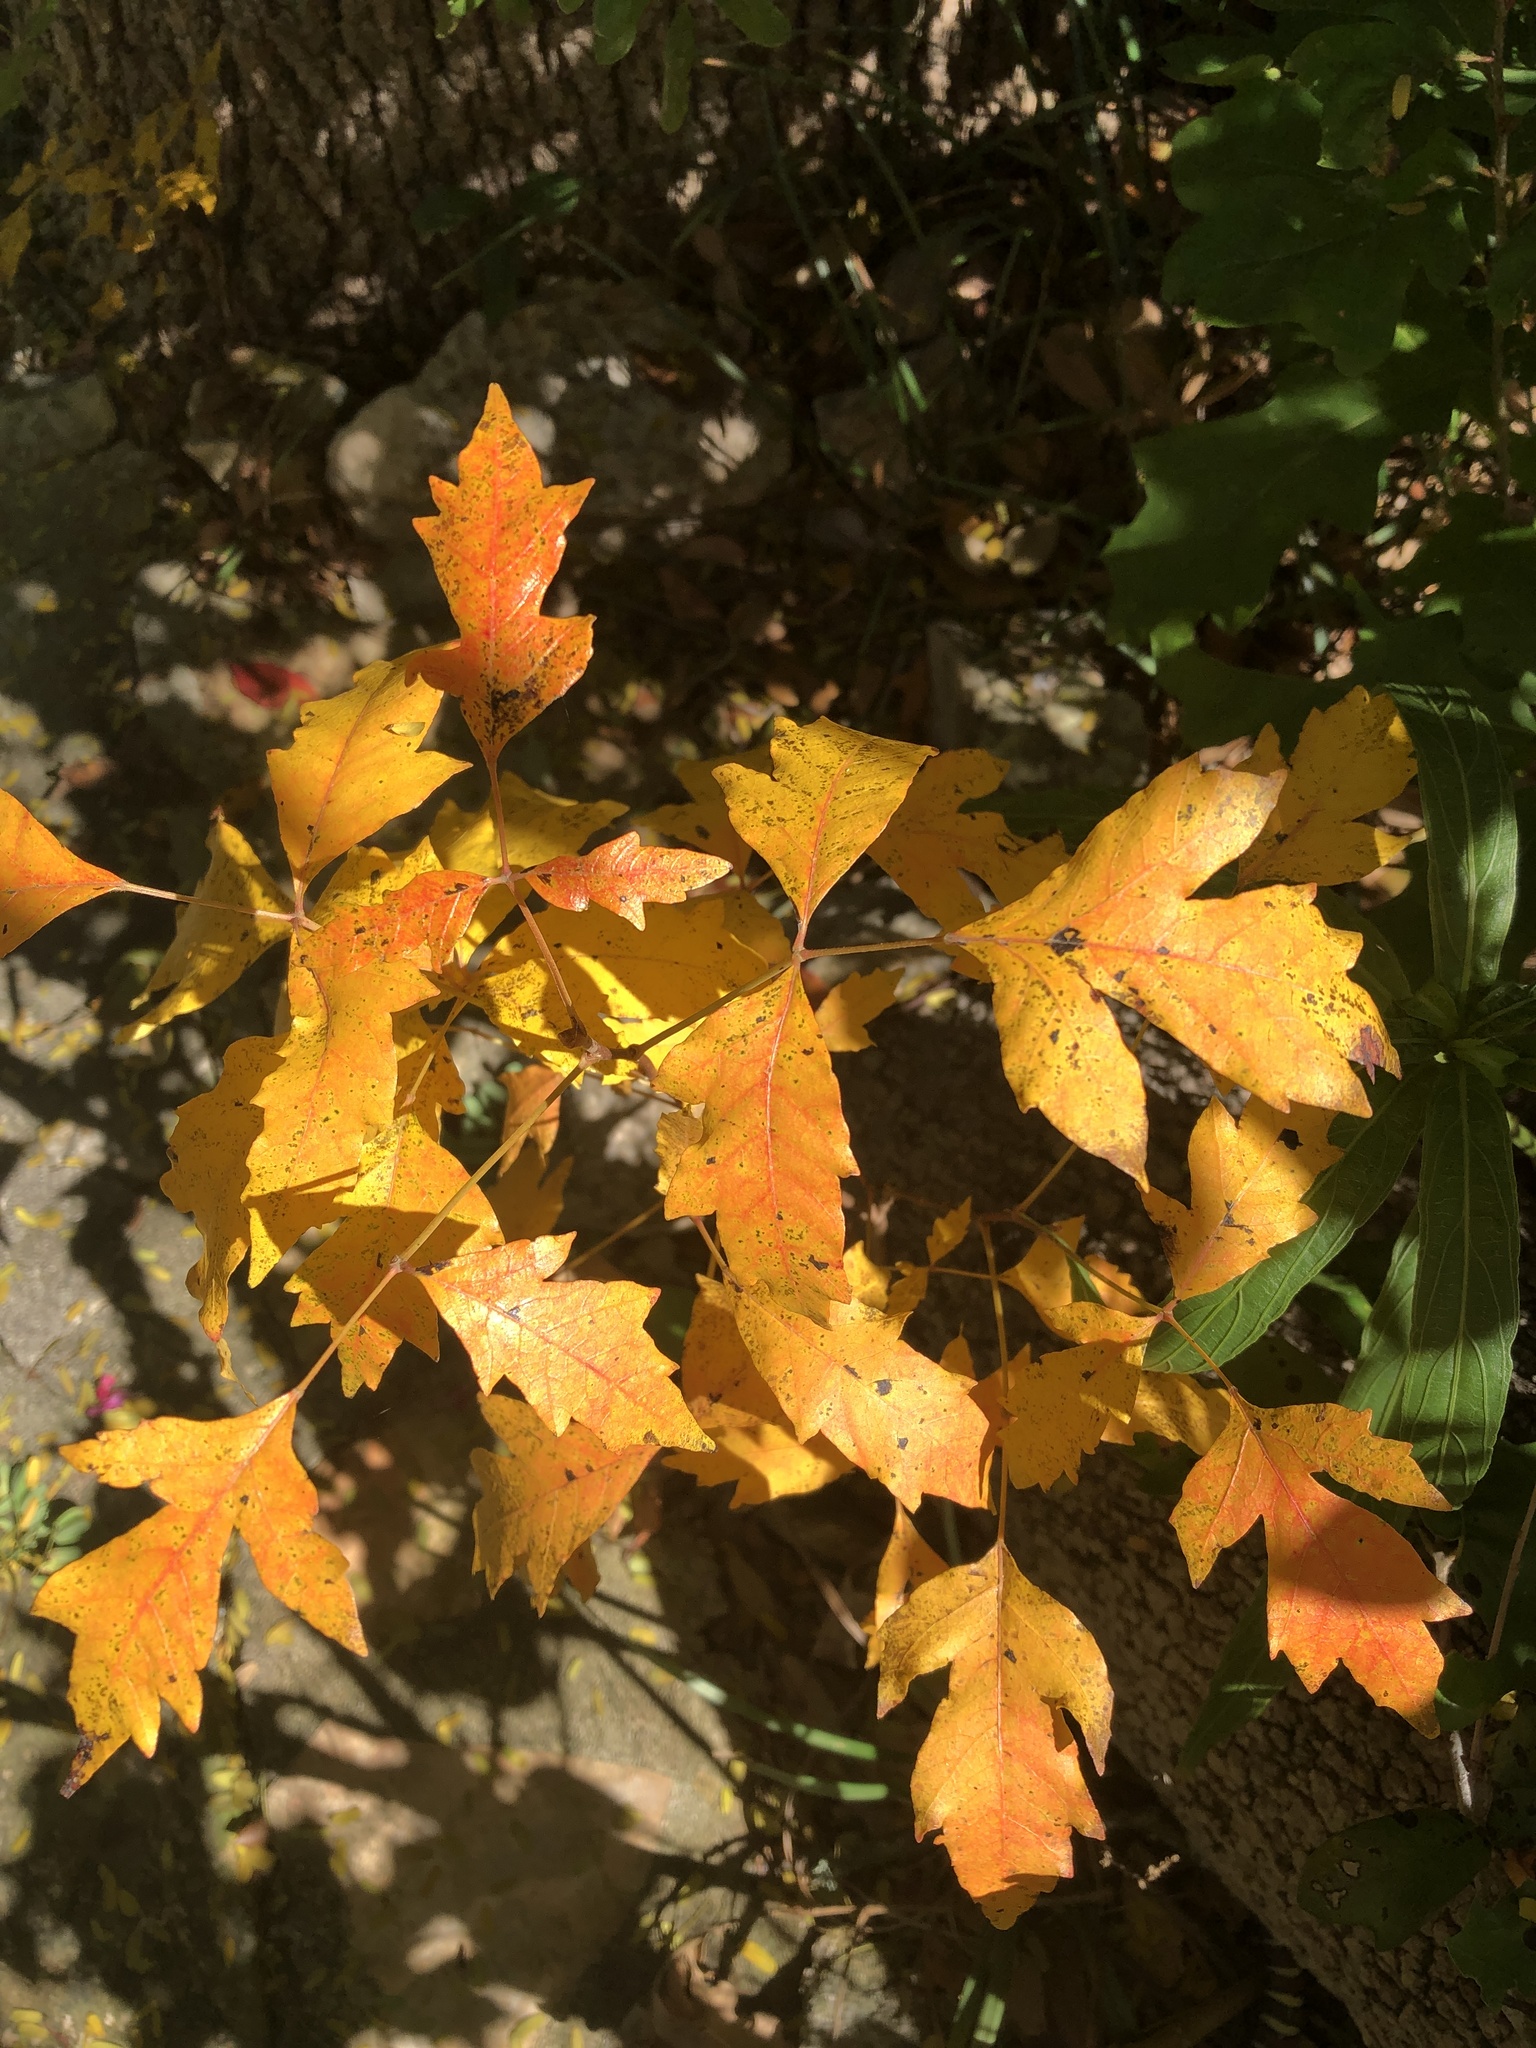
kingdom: Plantae
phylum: Tracheophyta
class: Magnoliopsida
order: Sapindales
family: Anacardiaceae
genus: Toxicodendron
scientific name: Toxicodendron radicans
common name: Poison ivy
